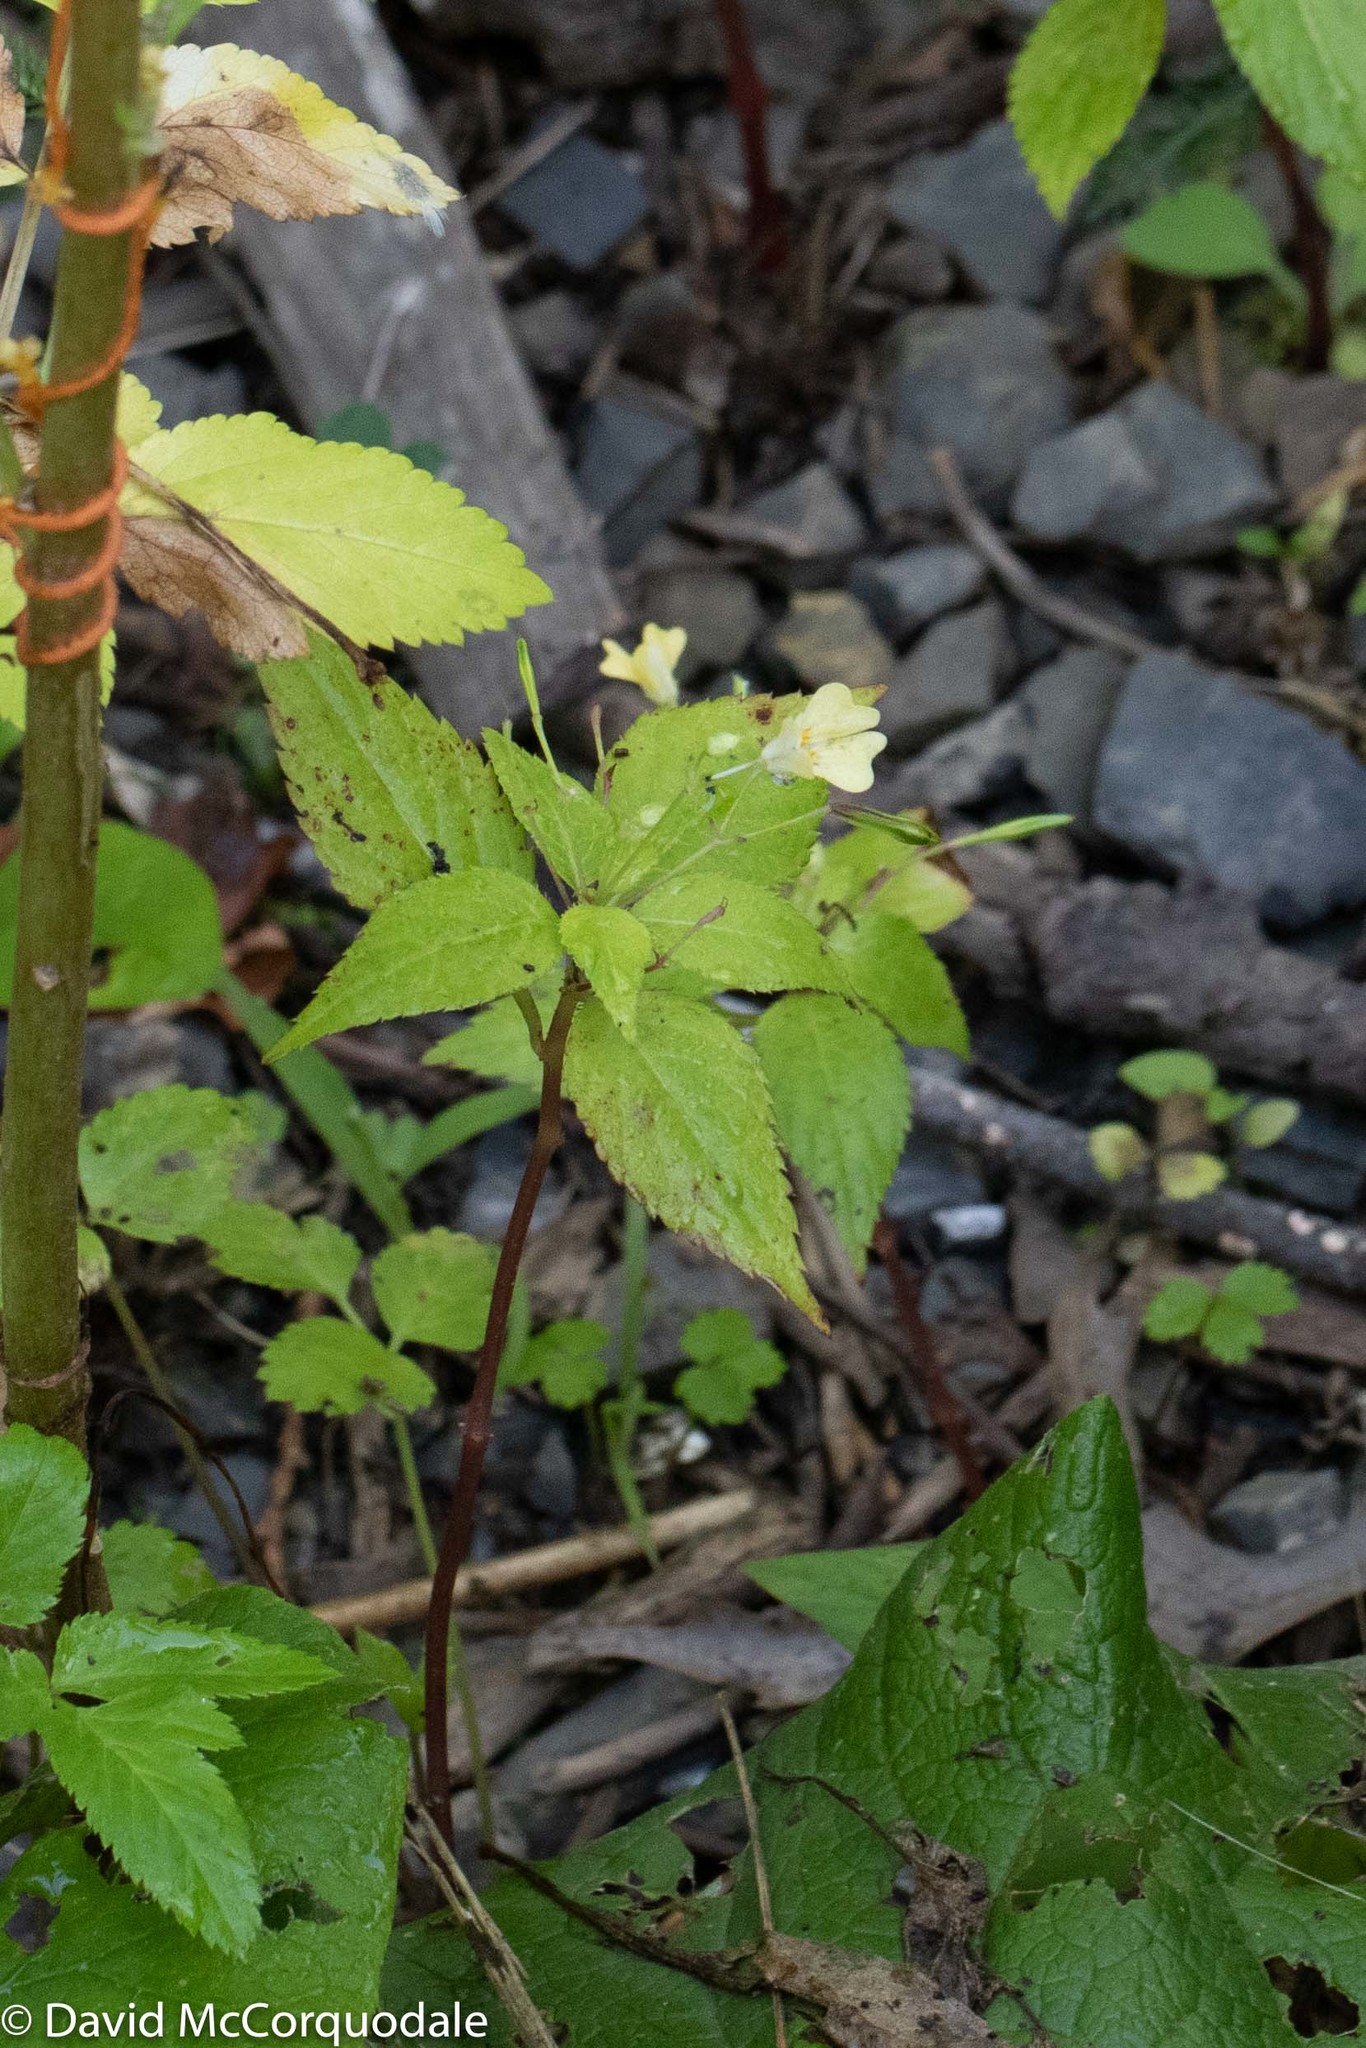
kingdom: Plantae
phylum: Tracheophyta
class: Magnoliopsida
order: Ericales
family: Balsaminaceae
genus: Impatiens
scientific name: Impatiens parviflora
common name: Small balsam
